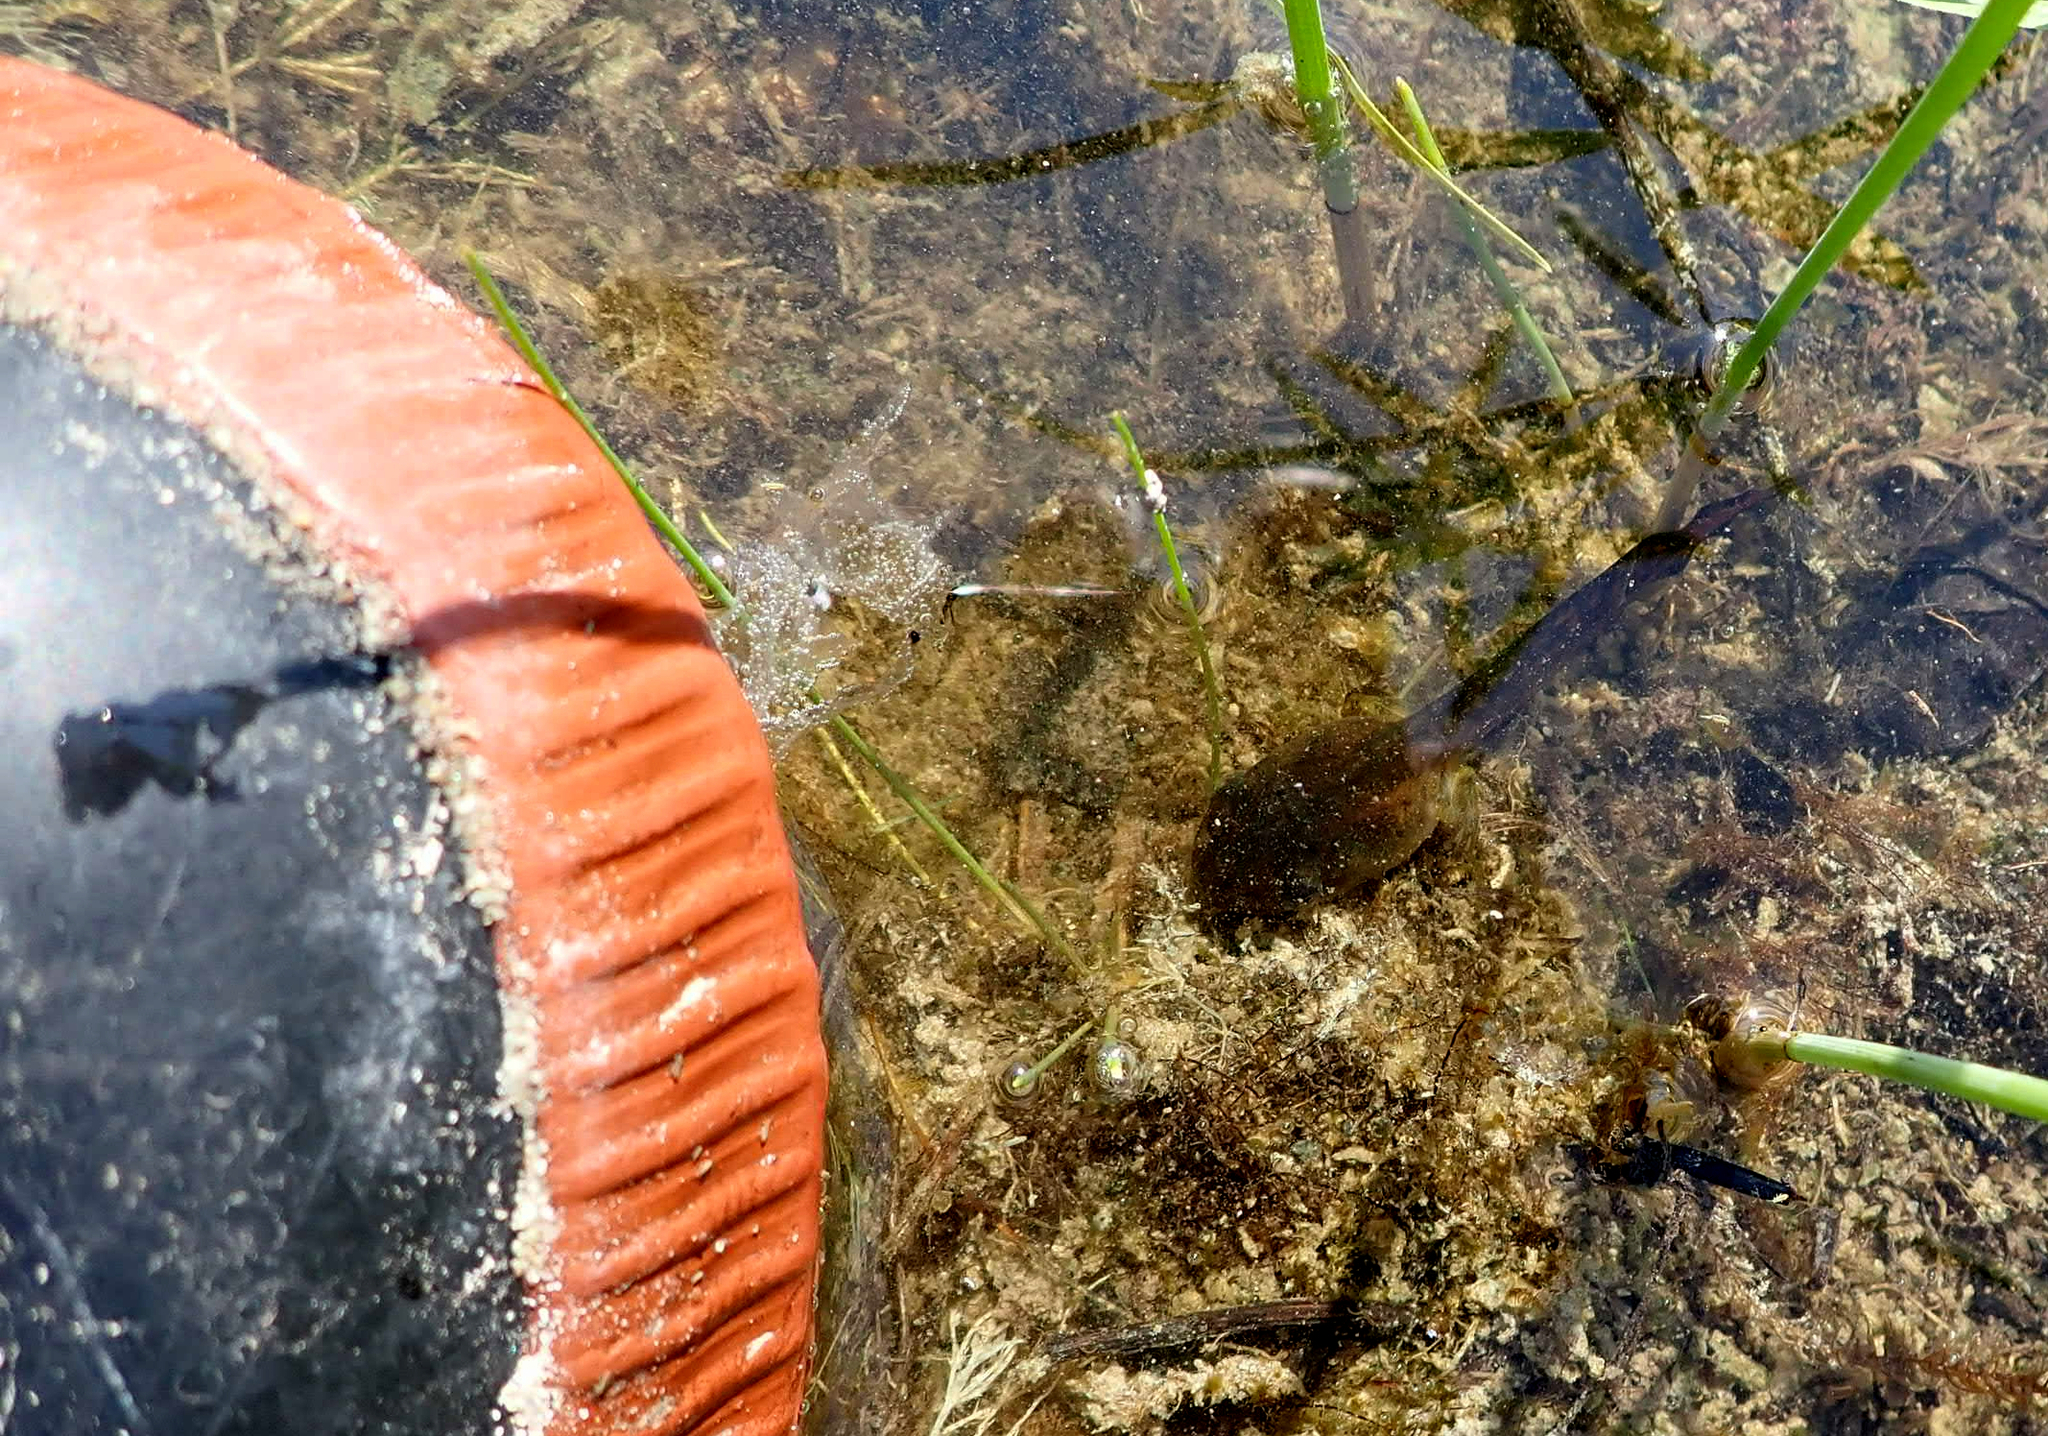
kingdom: Animalia
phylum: Chordata
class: Amphibia
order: Anura
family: Ranidae
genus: Lithobates
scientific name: Lithobates pipiens
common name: Northern leopard frog
